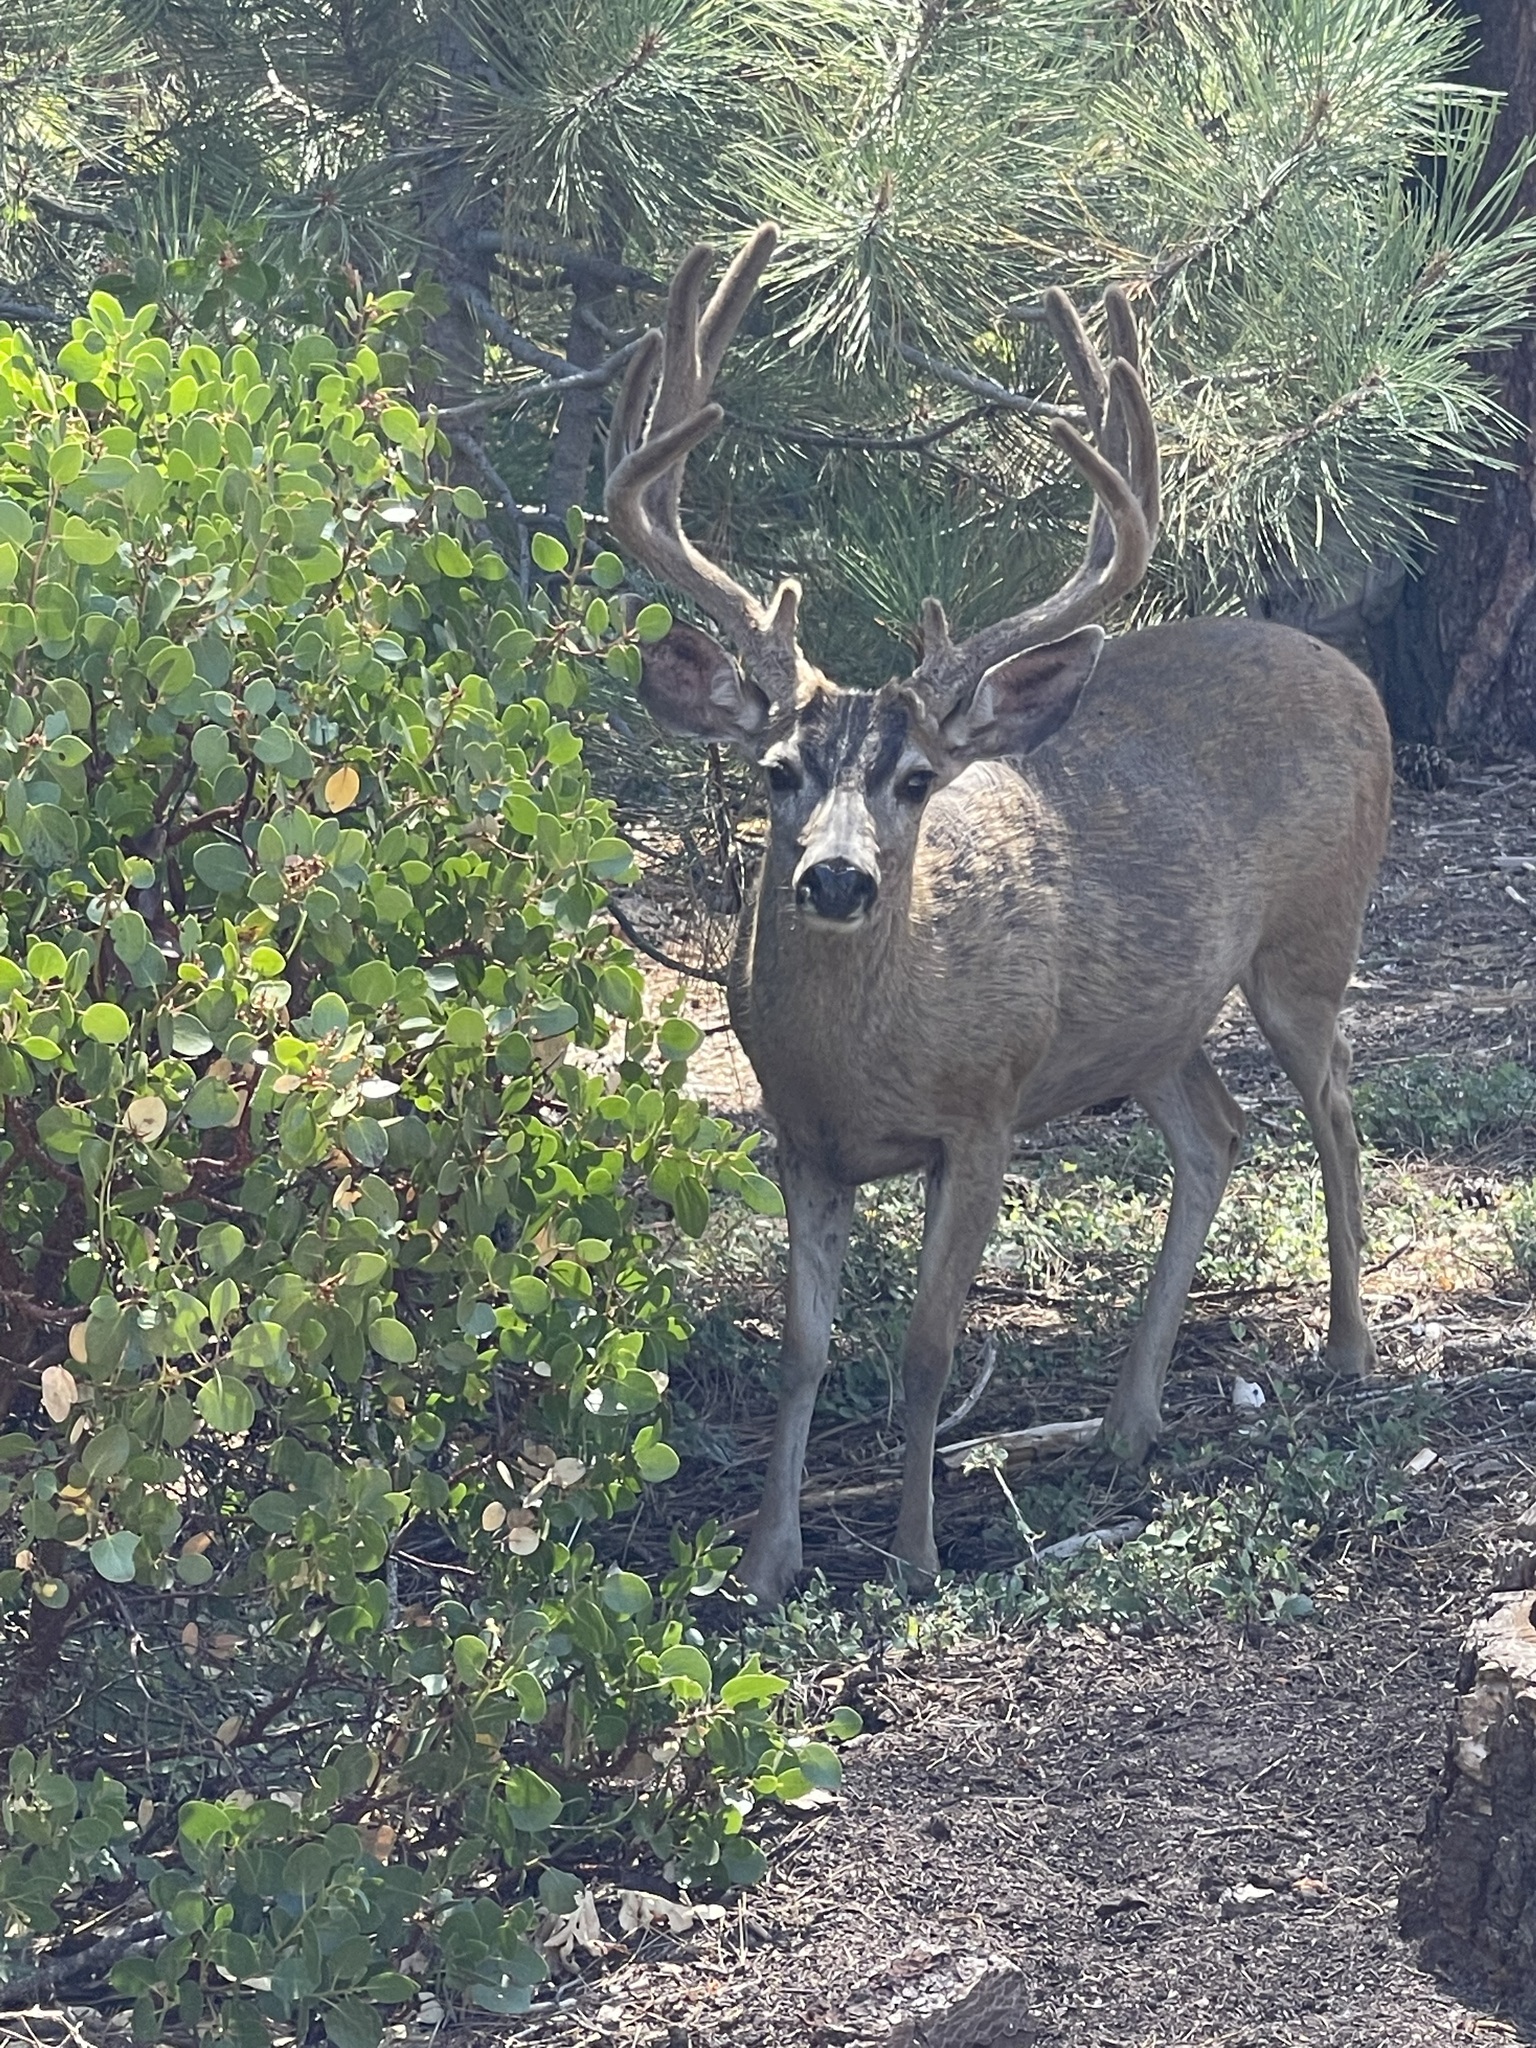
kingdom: Animalia
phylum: Chordata
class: Mammalia
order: Artiodactyla
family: Cervidae
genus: Odocoileus
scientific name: Odocoileus hemionus
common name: Mule deer
